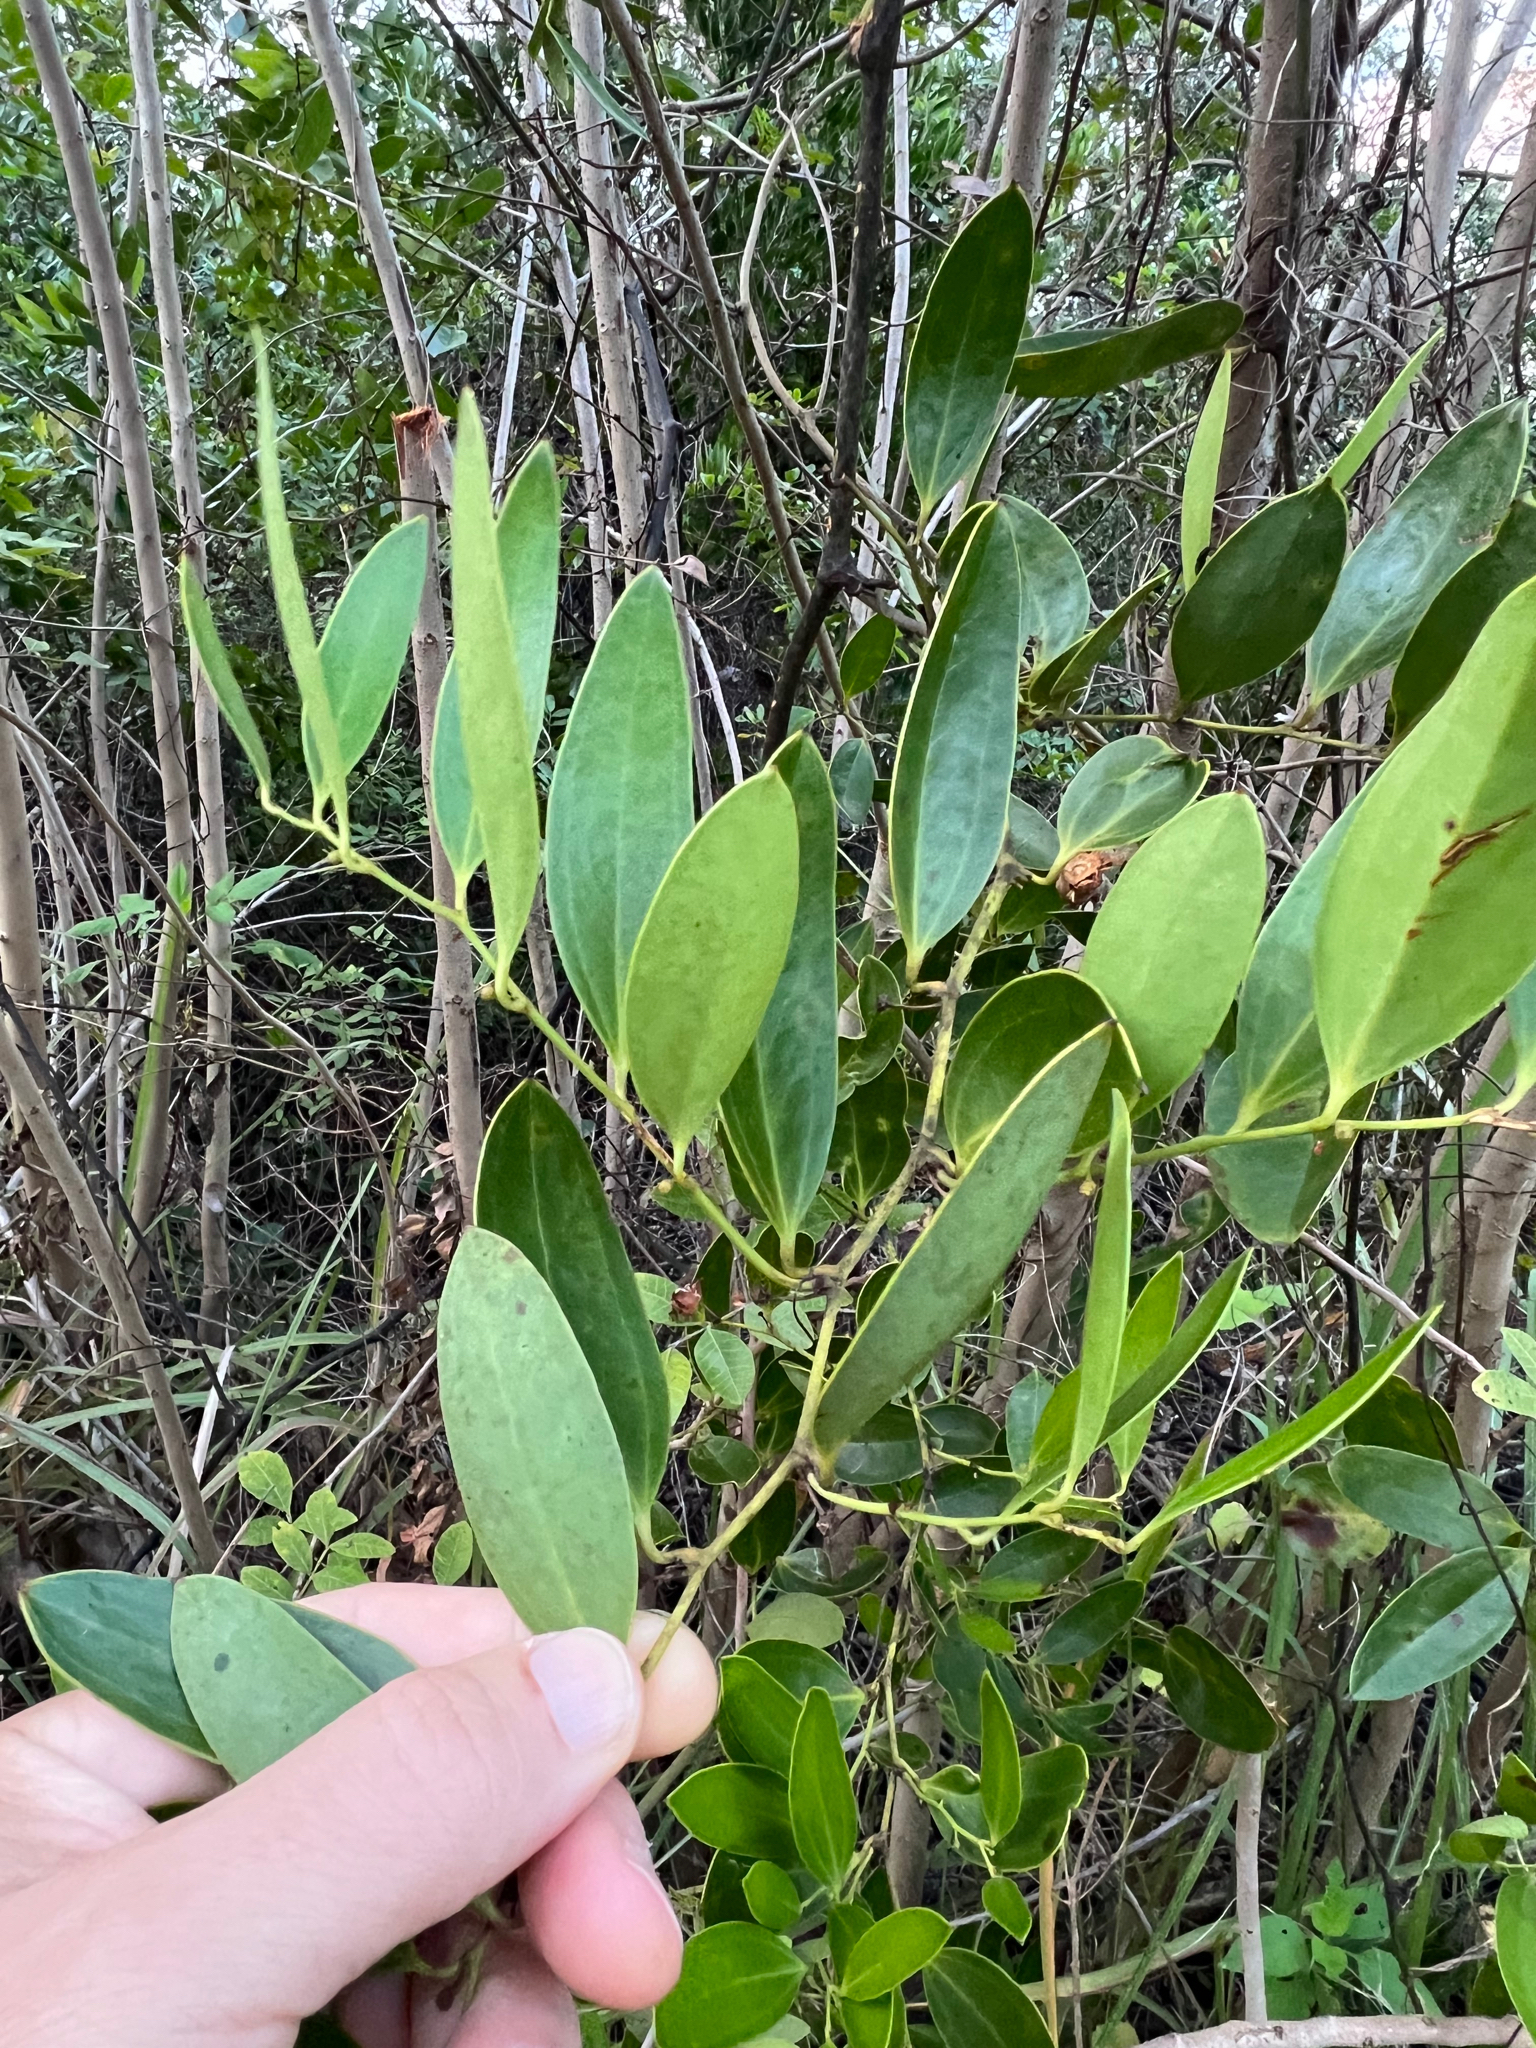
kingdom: Plantae
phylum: Tracheophyta
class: Liliopsida
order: Liliales
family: Smilacaceae
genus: Smilax
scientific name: Smilax laurifolia
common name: Bamboovine
